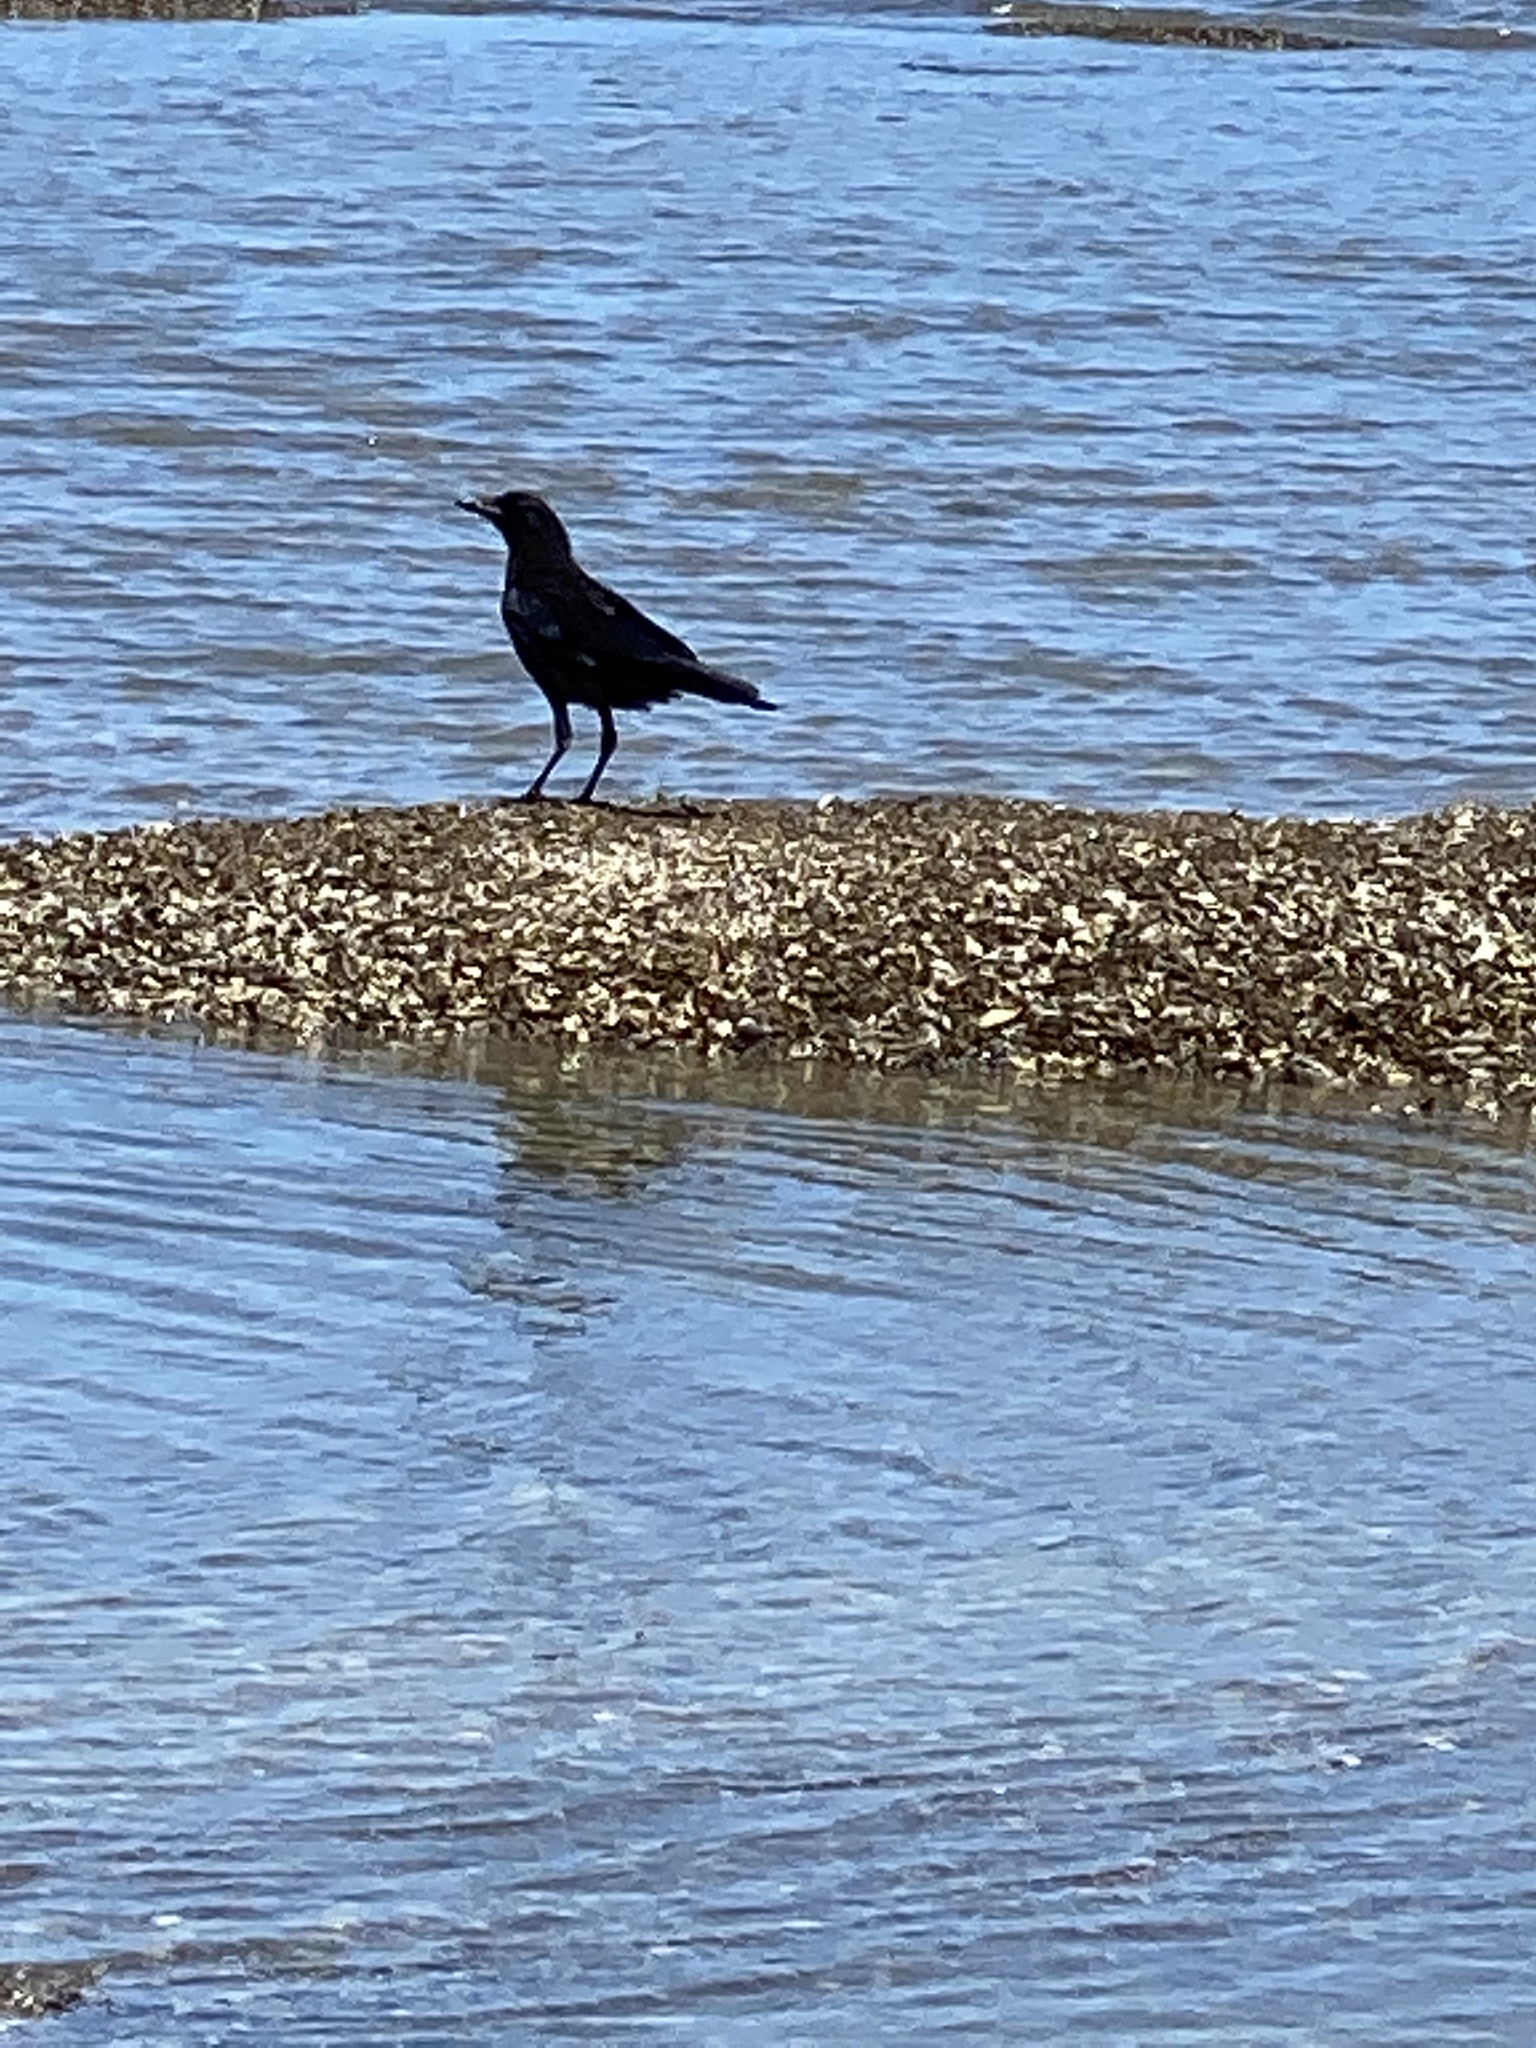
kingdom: Animalia
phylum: Chordata
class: Aves
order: Passeriformes
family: Corvidae
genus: Corvus
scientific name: Corvus brachyrhynchos
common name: American crow
